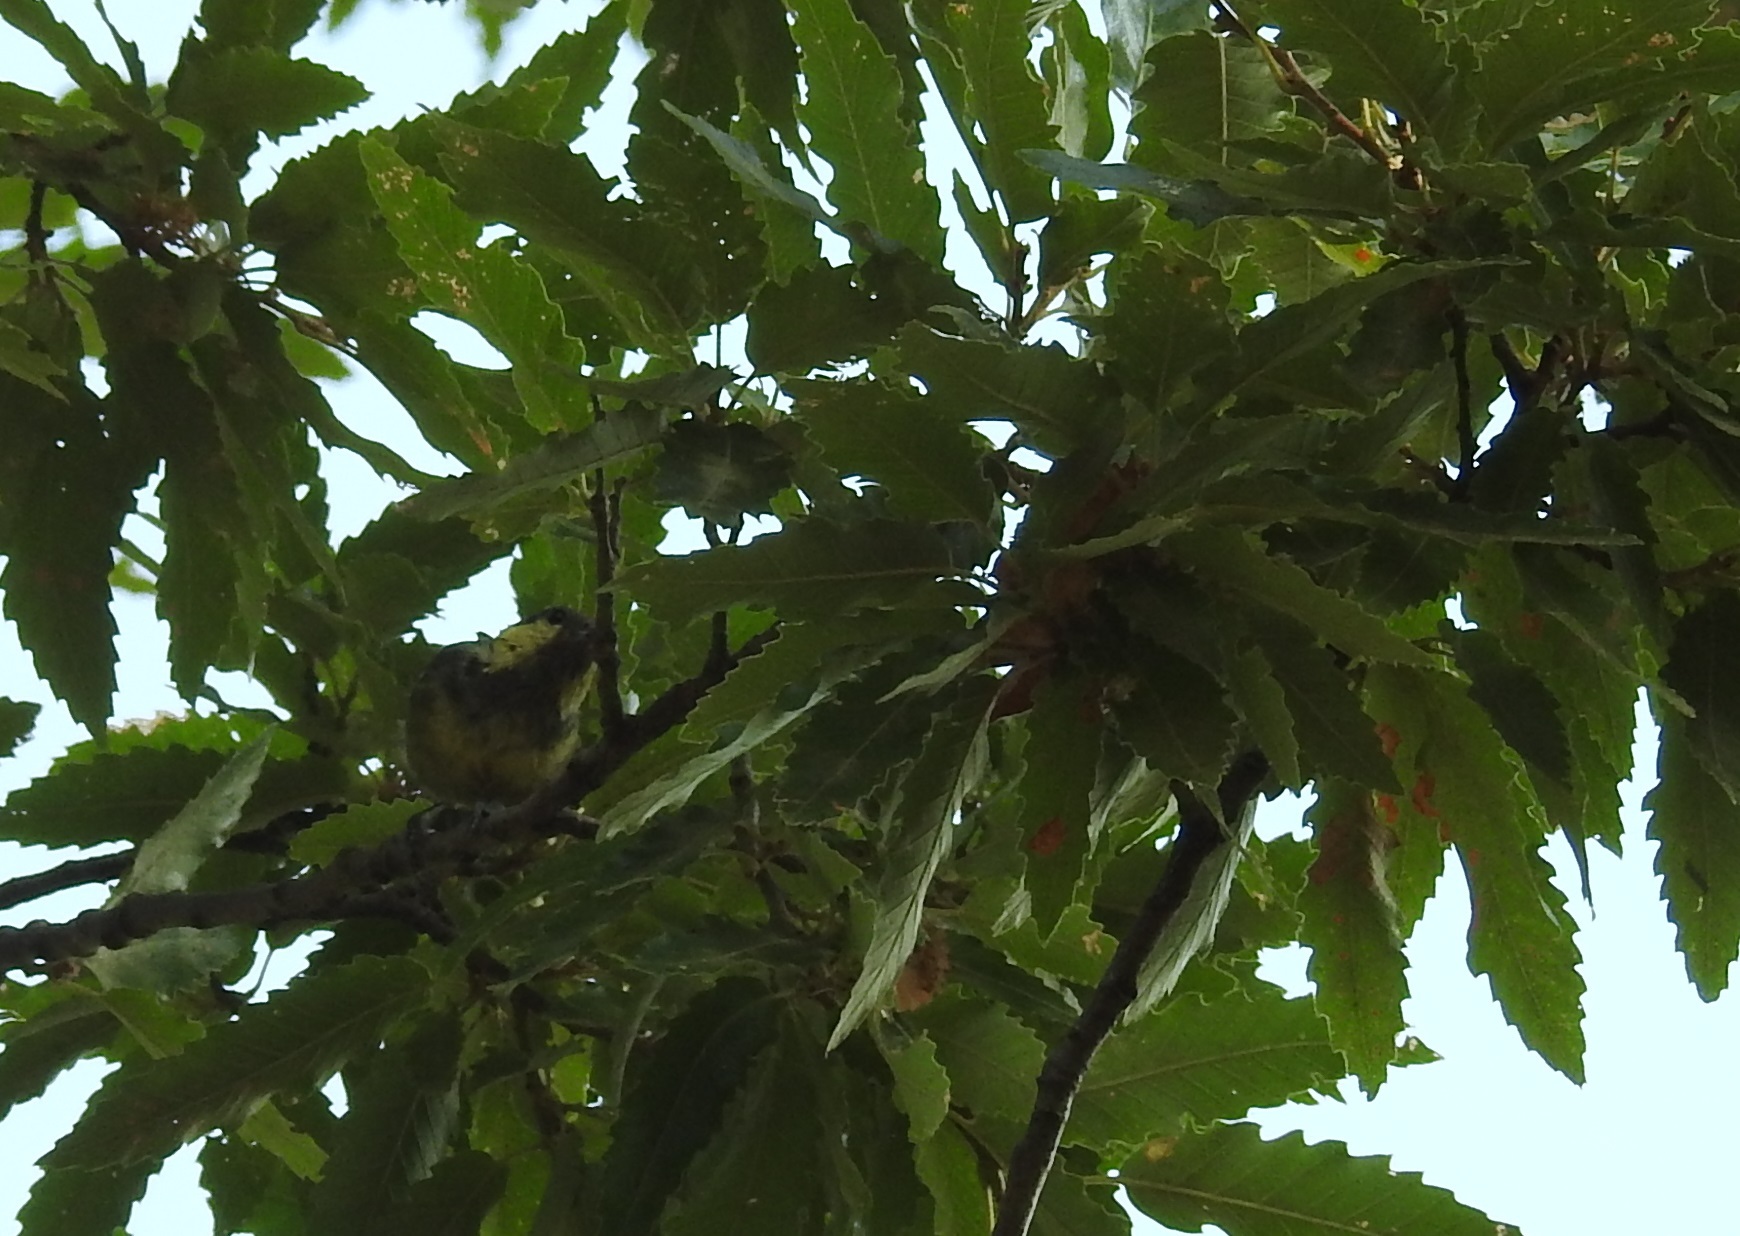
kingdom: Animalia
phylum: Chordata
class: Aves
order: Passeriformes
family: Paridae
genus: Periparus
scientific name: Periparus ater
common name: Coal tit
